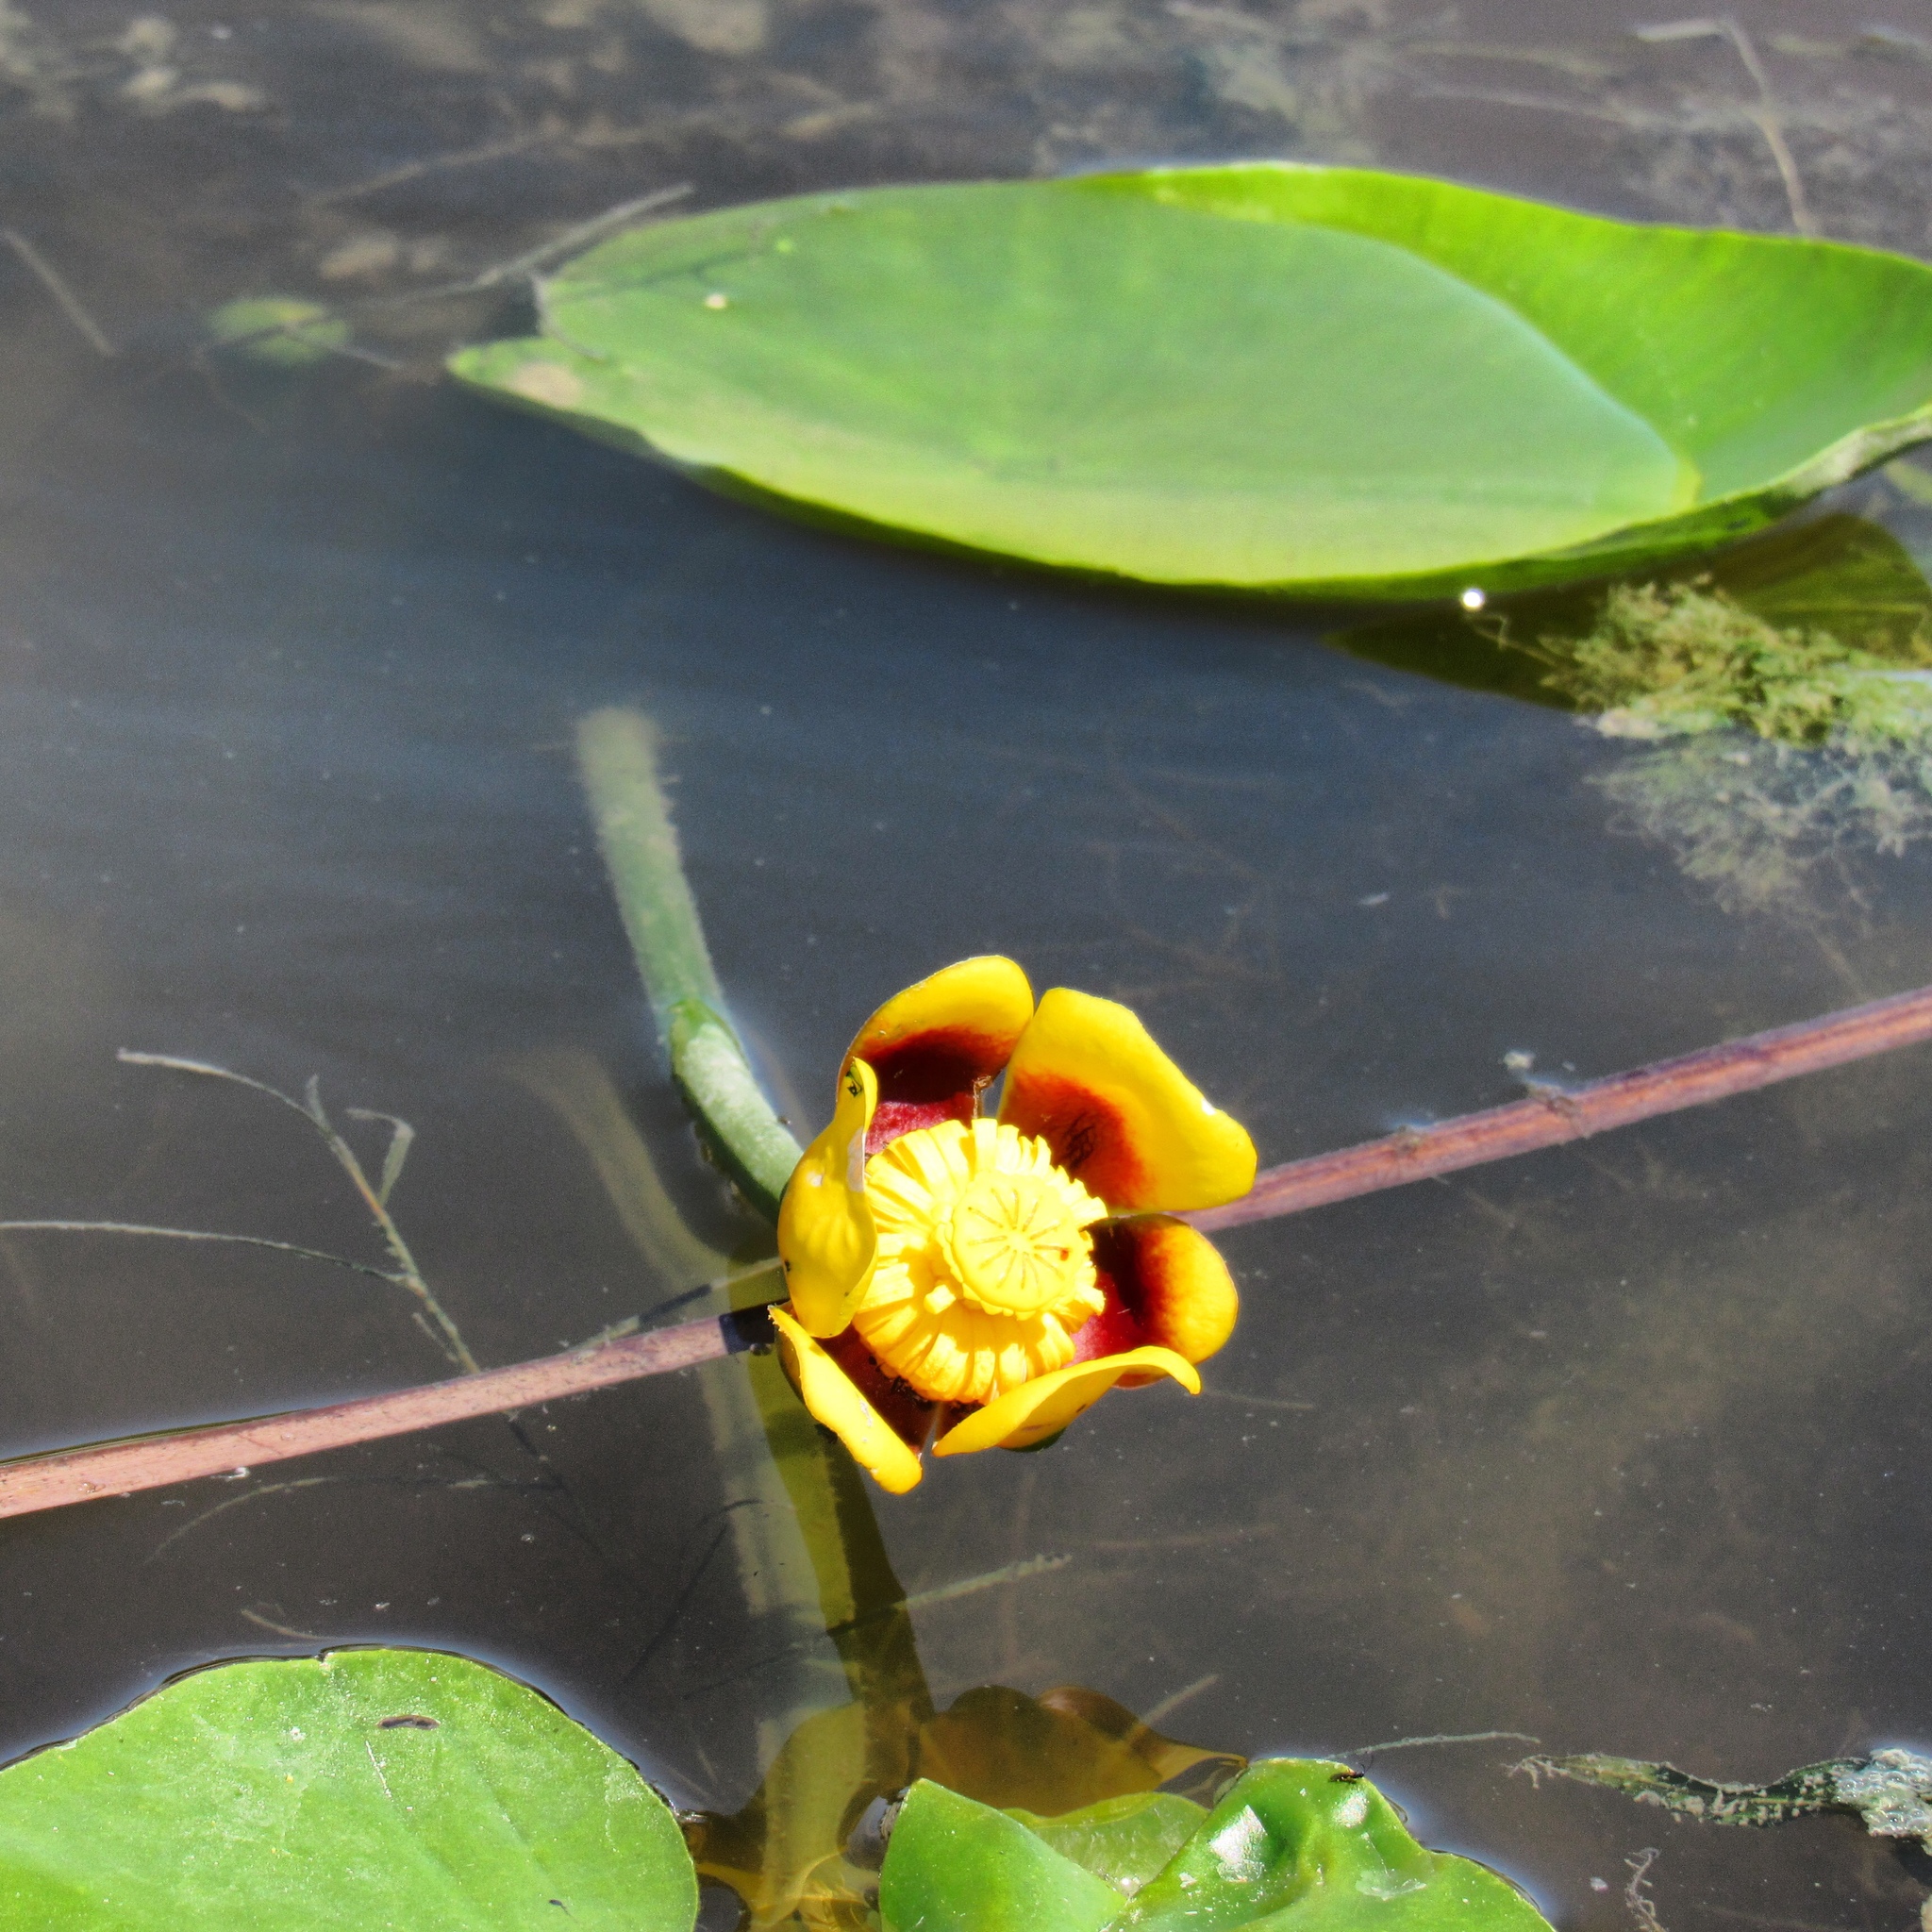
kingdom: Plantae
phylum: Tracheophyta
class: Magnoliopsida
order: Nymphaeales
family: Nymphaeaceae
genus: Nuphar
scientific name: Nuphar variegata
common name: Beaver-root
